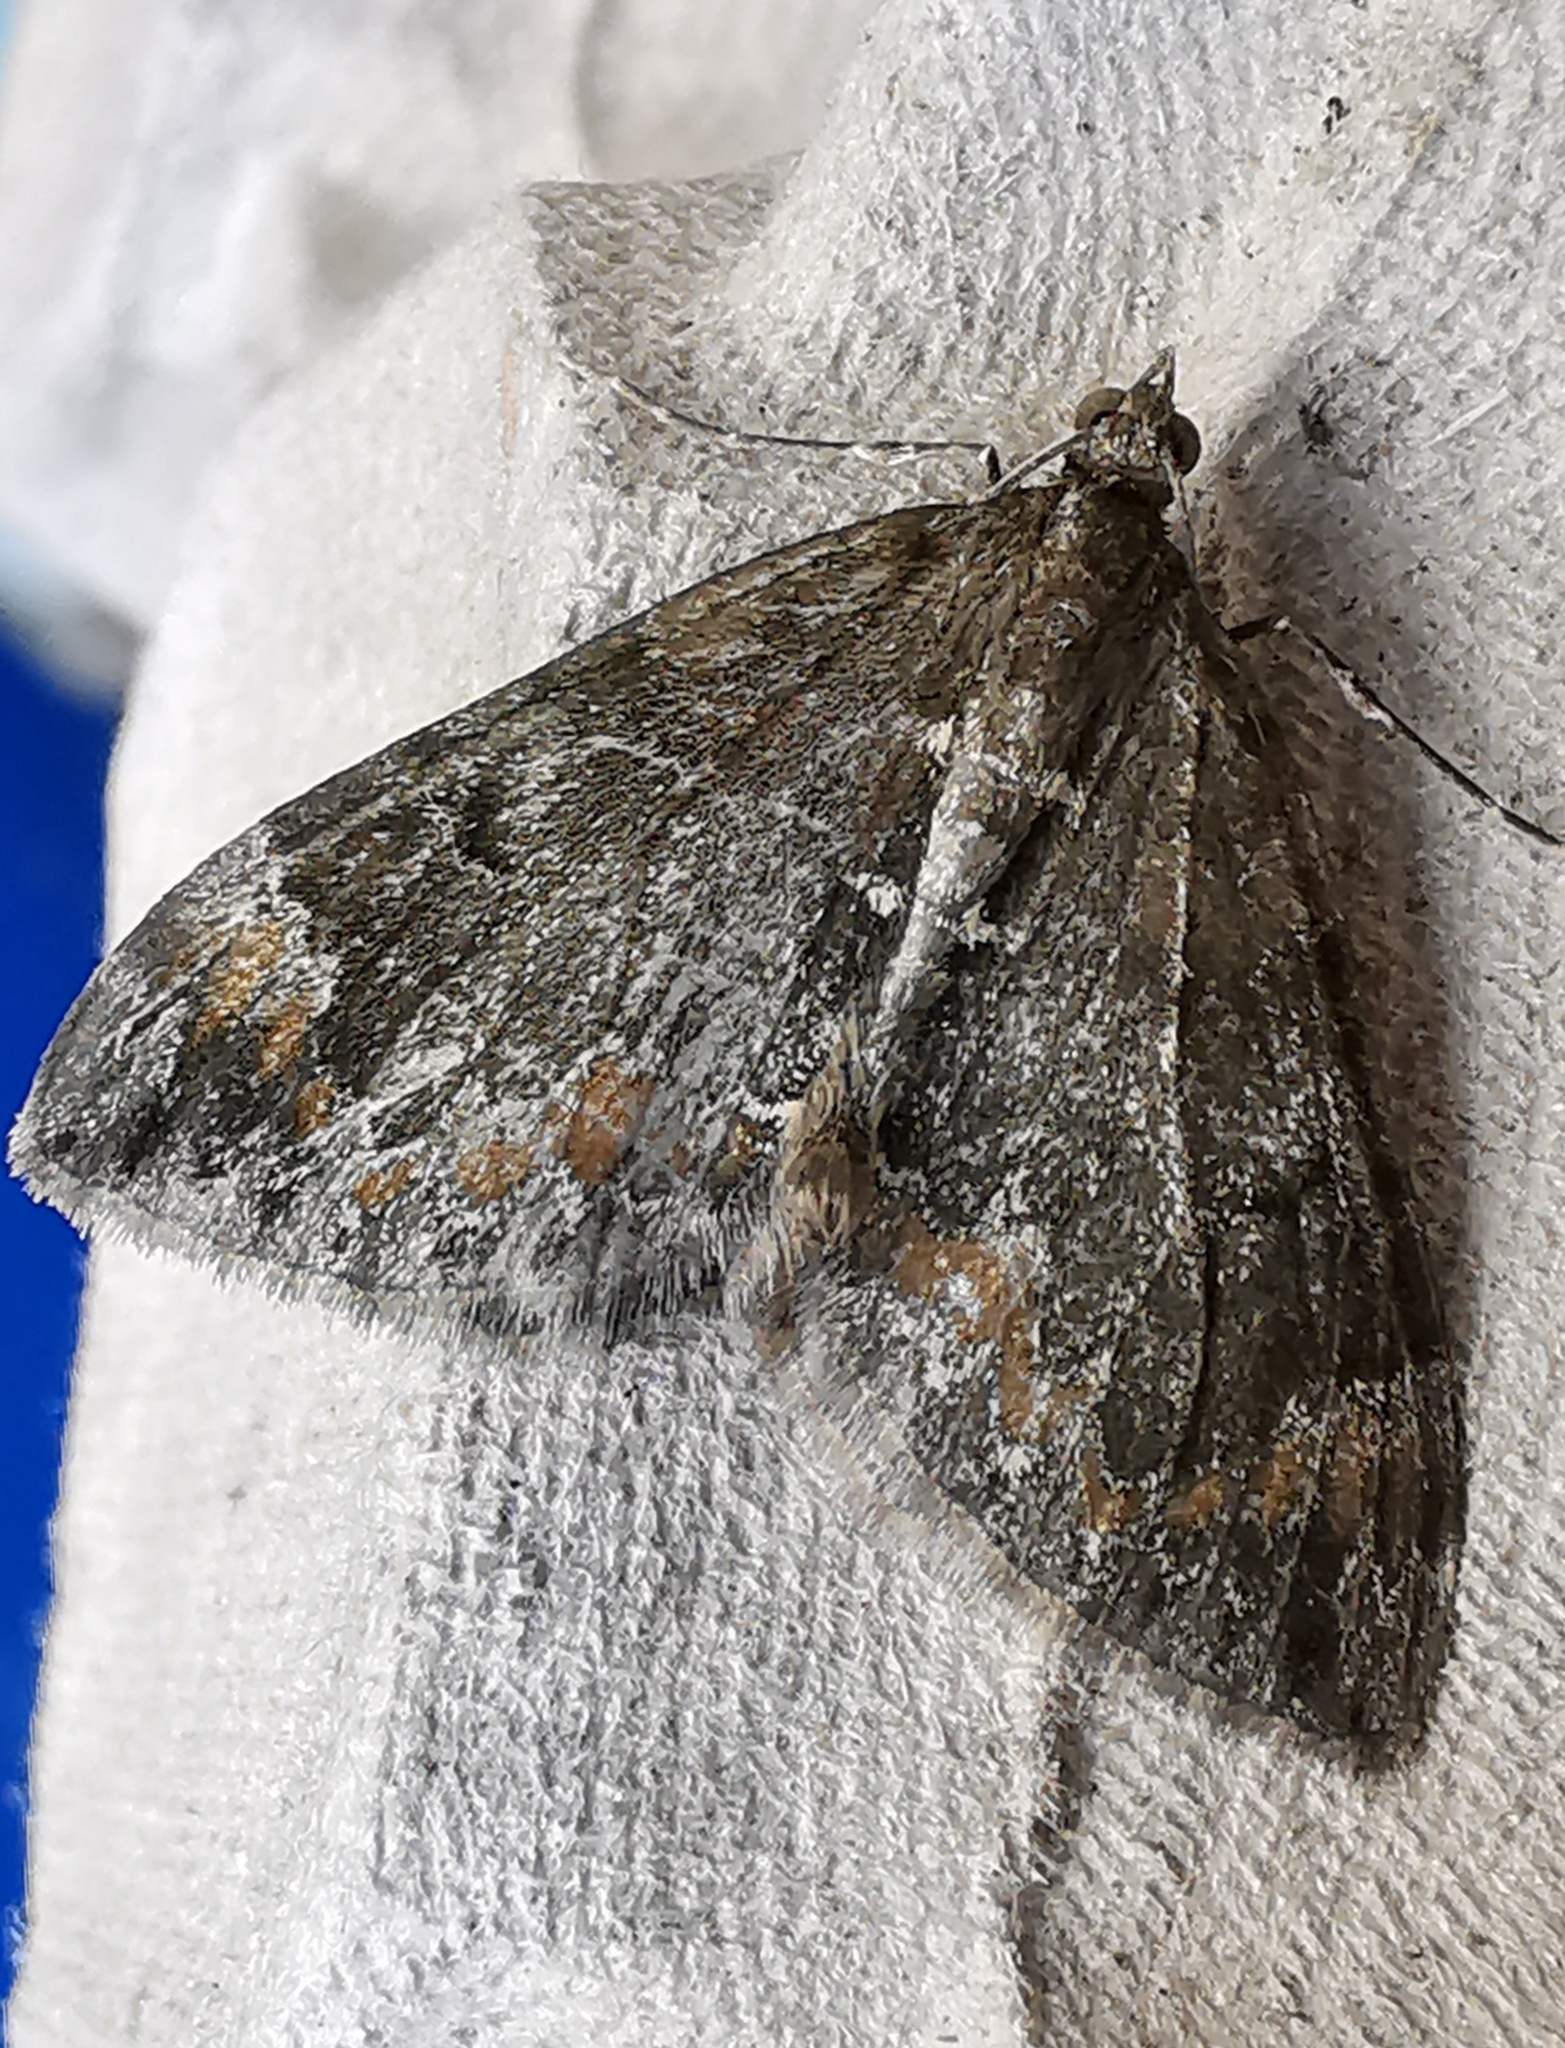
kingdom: Animalia
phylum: Arthropoda
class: Insecta
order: Lepidoptera
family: Geometridae
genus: Dysstroma
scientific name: Dysstroma truncata
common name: Common marbled carpet
